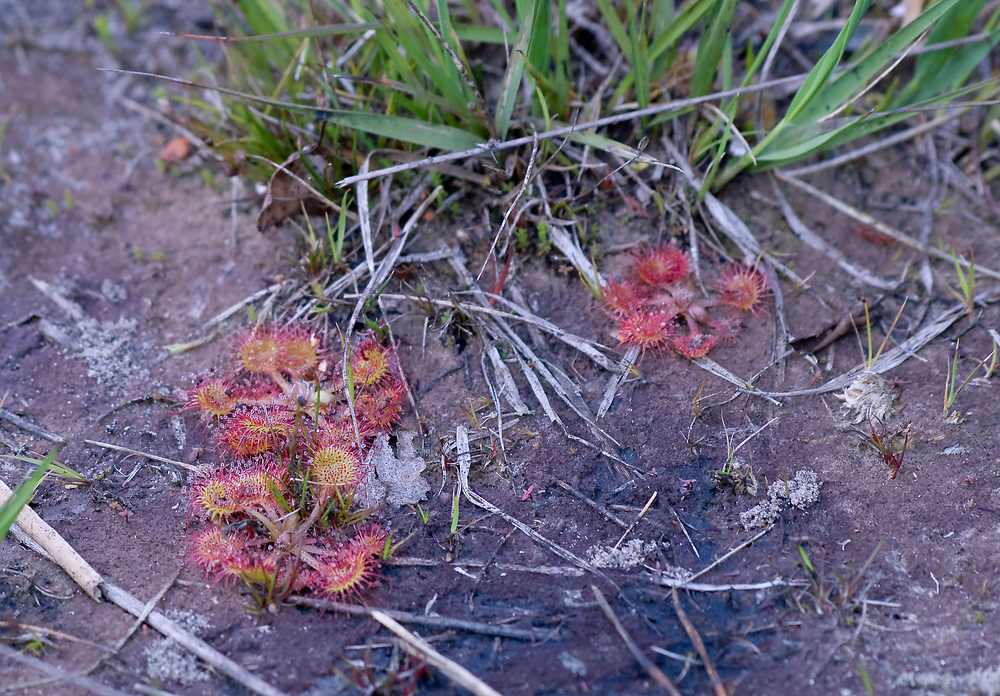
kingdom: Plantae
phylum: Tracheophyta
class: Magnoliopsida
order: Caryophyllales
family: Droseraceae
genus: Drosera
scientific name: Drosera rotundifolia
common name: Round-leaved sundew
